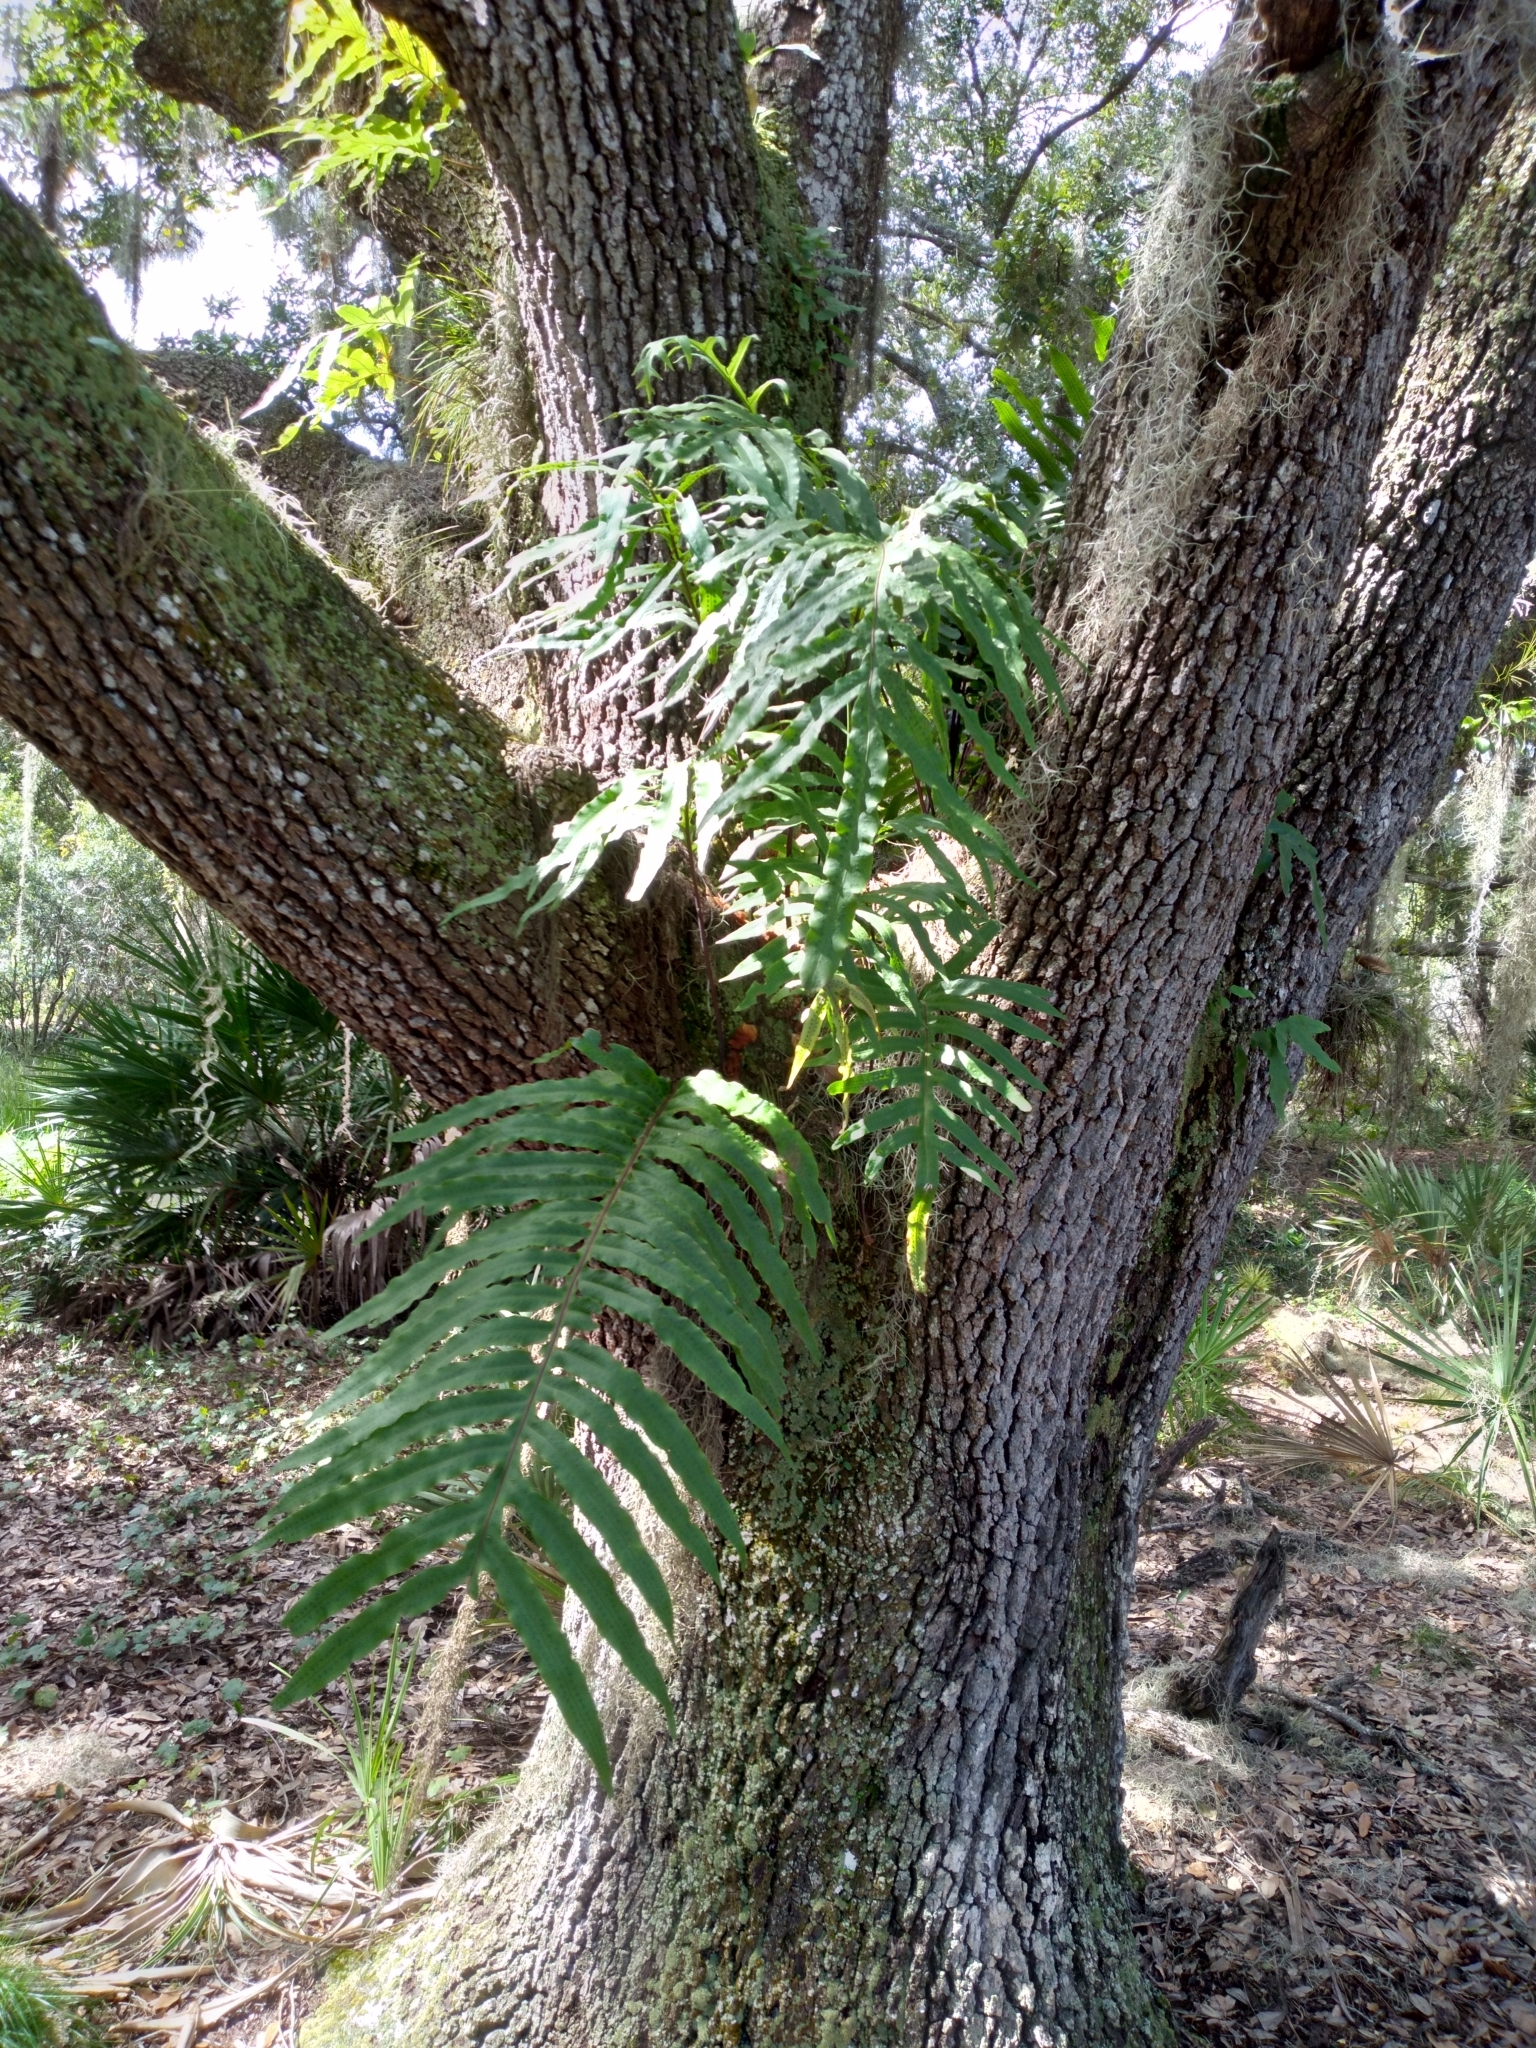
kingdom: Plantae
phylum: Tracheophyta
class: Polypodiopsida
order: Polypodiales
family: Polypodiaceae
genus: Phlebodium
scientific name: Phlebodium aureum
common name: Gold-foot fern
